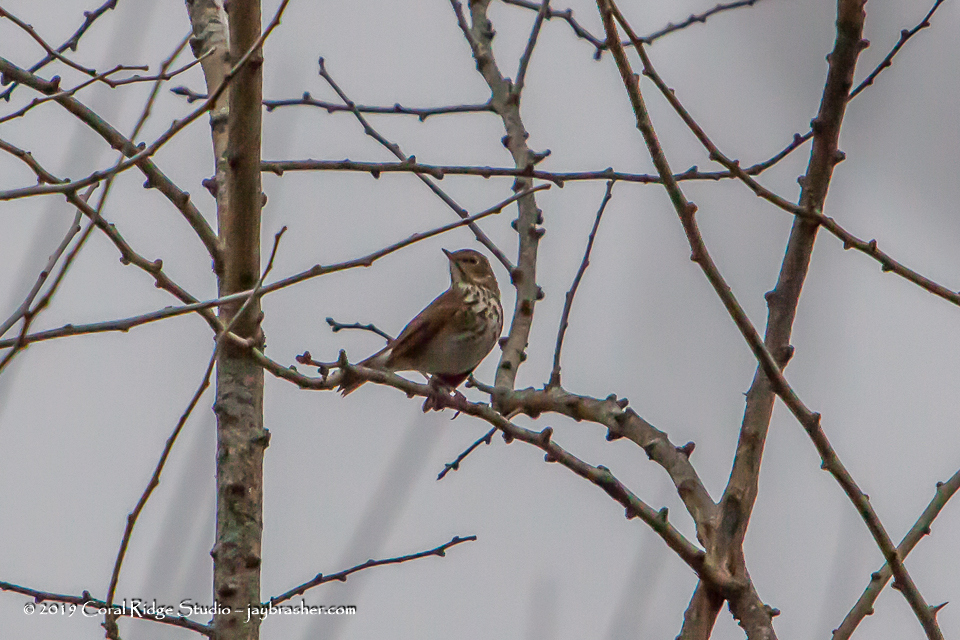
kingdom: Animalia
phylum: Chordata
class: Aves
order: Passeriformes
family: Turdidae
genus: Catharus
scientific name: Catharus guttatus
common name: Hermit thrush
